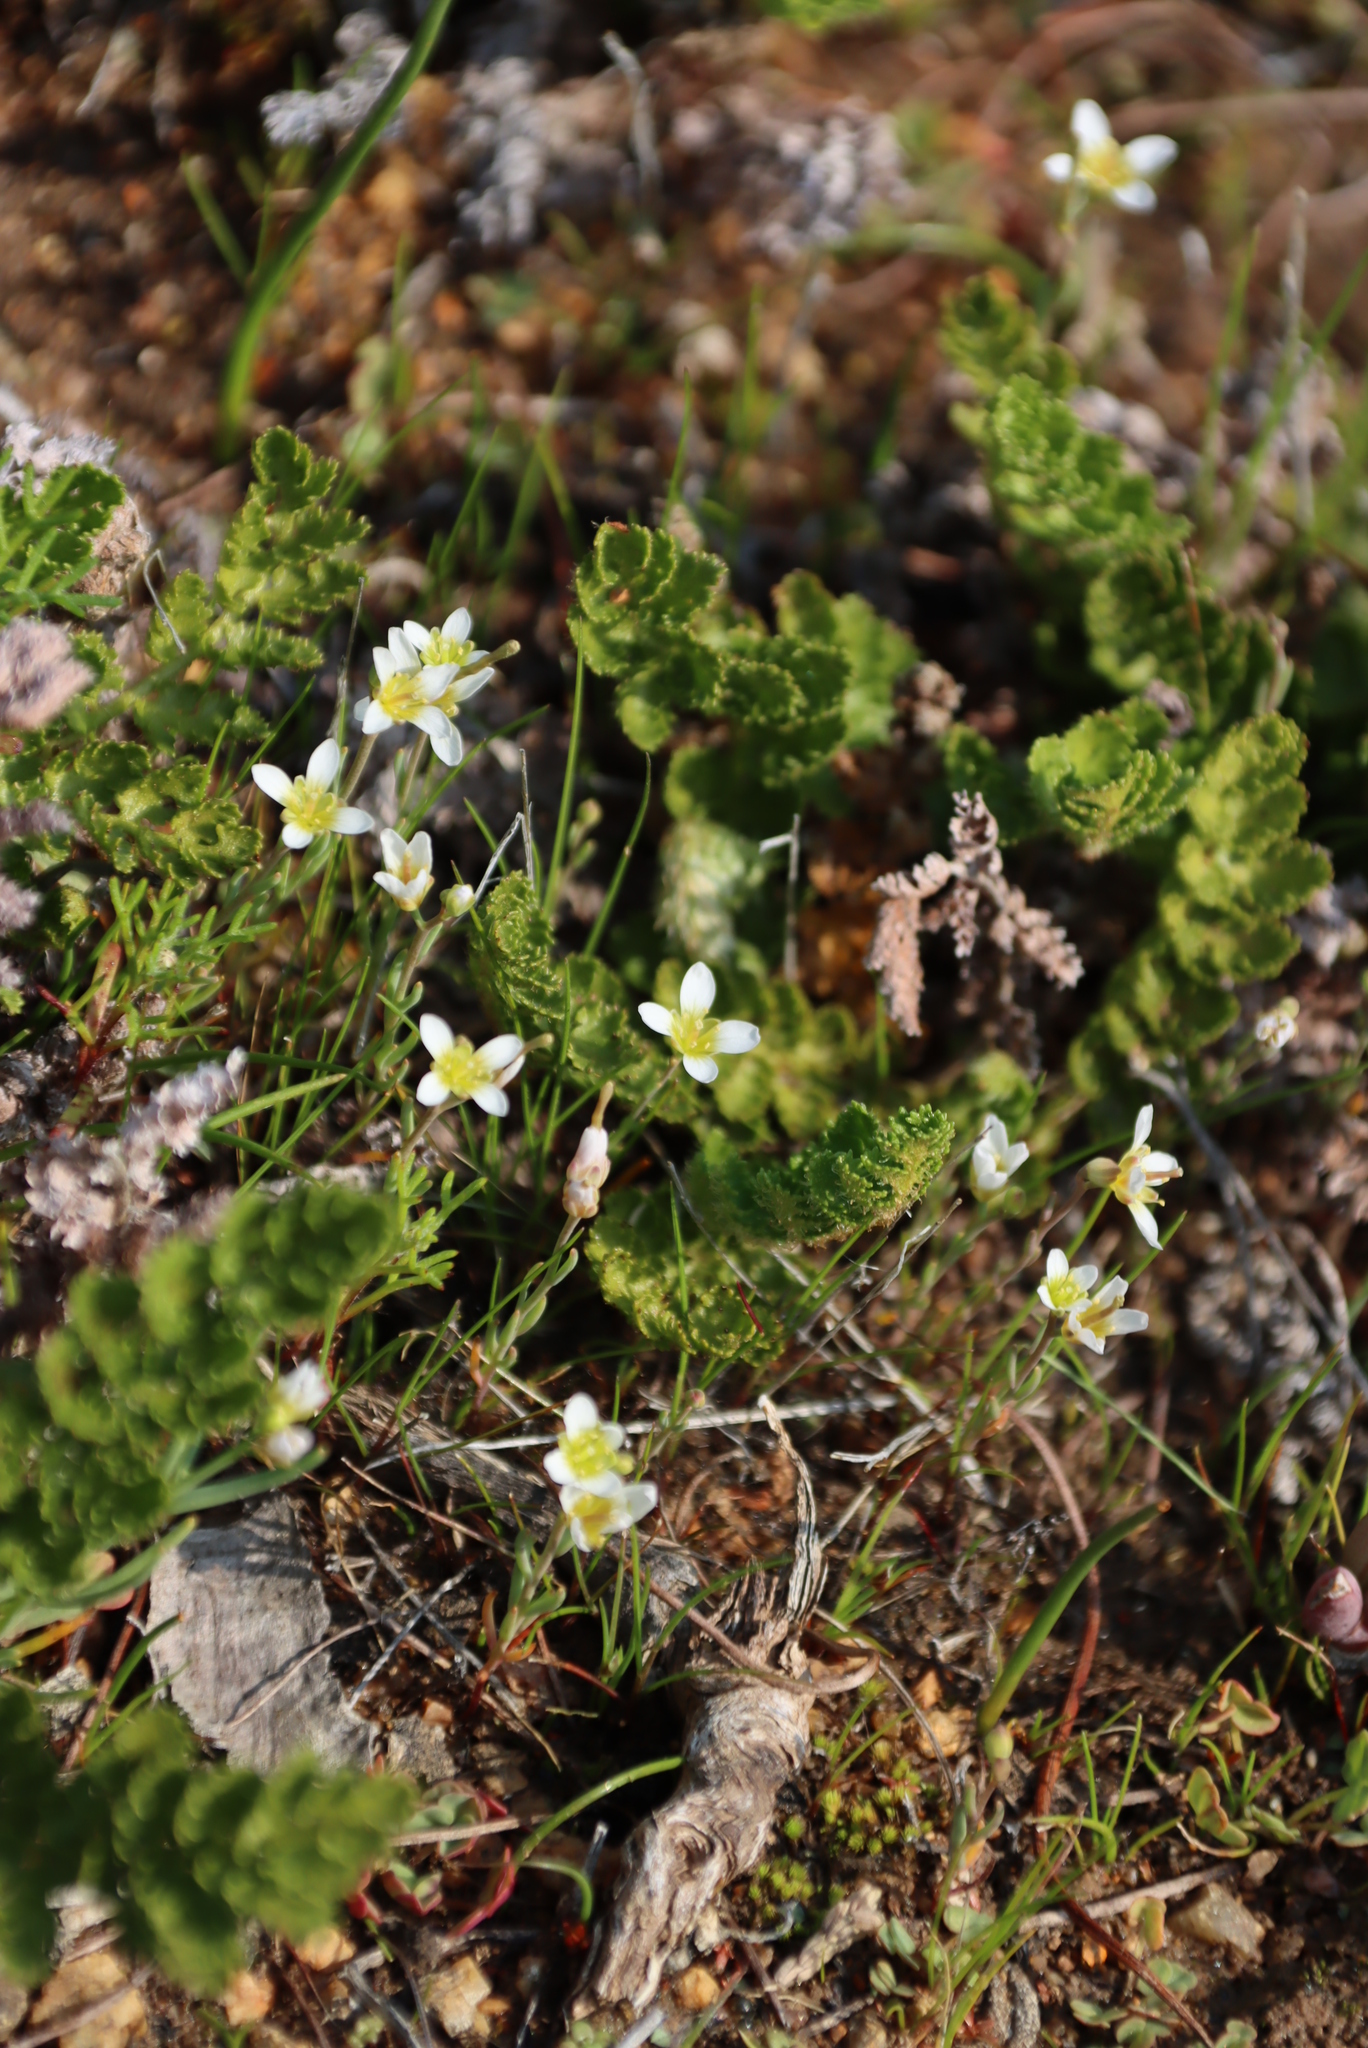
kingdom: Plantae
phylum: Tracheophyta
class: Magnoliopsida
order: Brassicales
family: Brassicaceae
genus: Heliophila
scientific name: Heliophila namaquana
